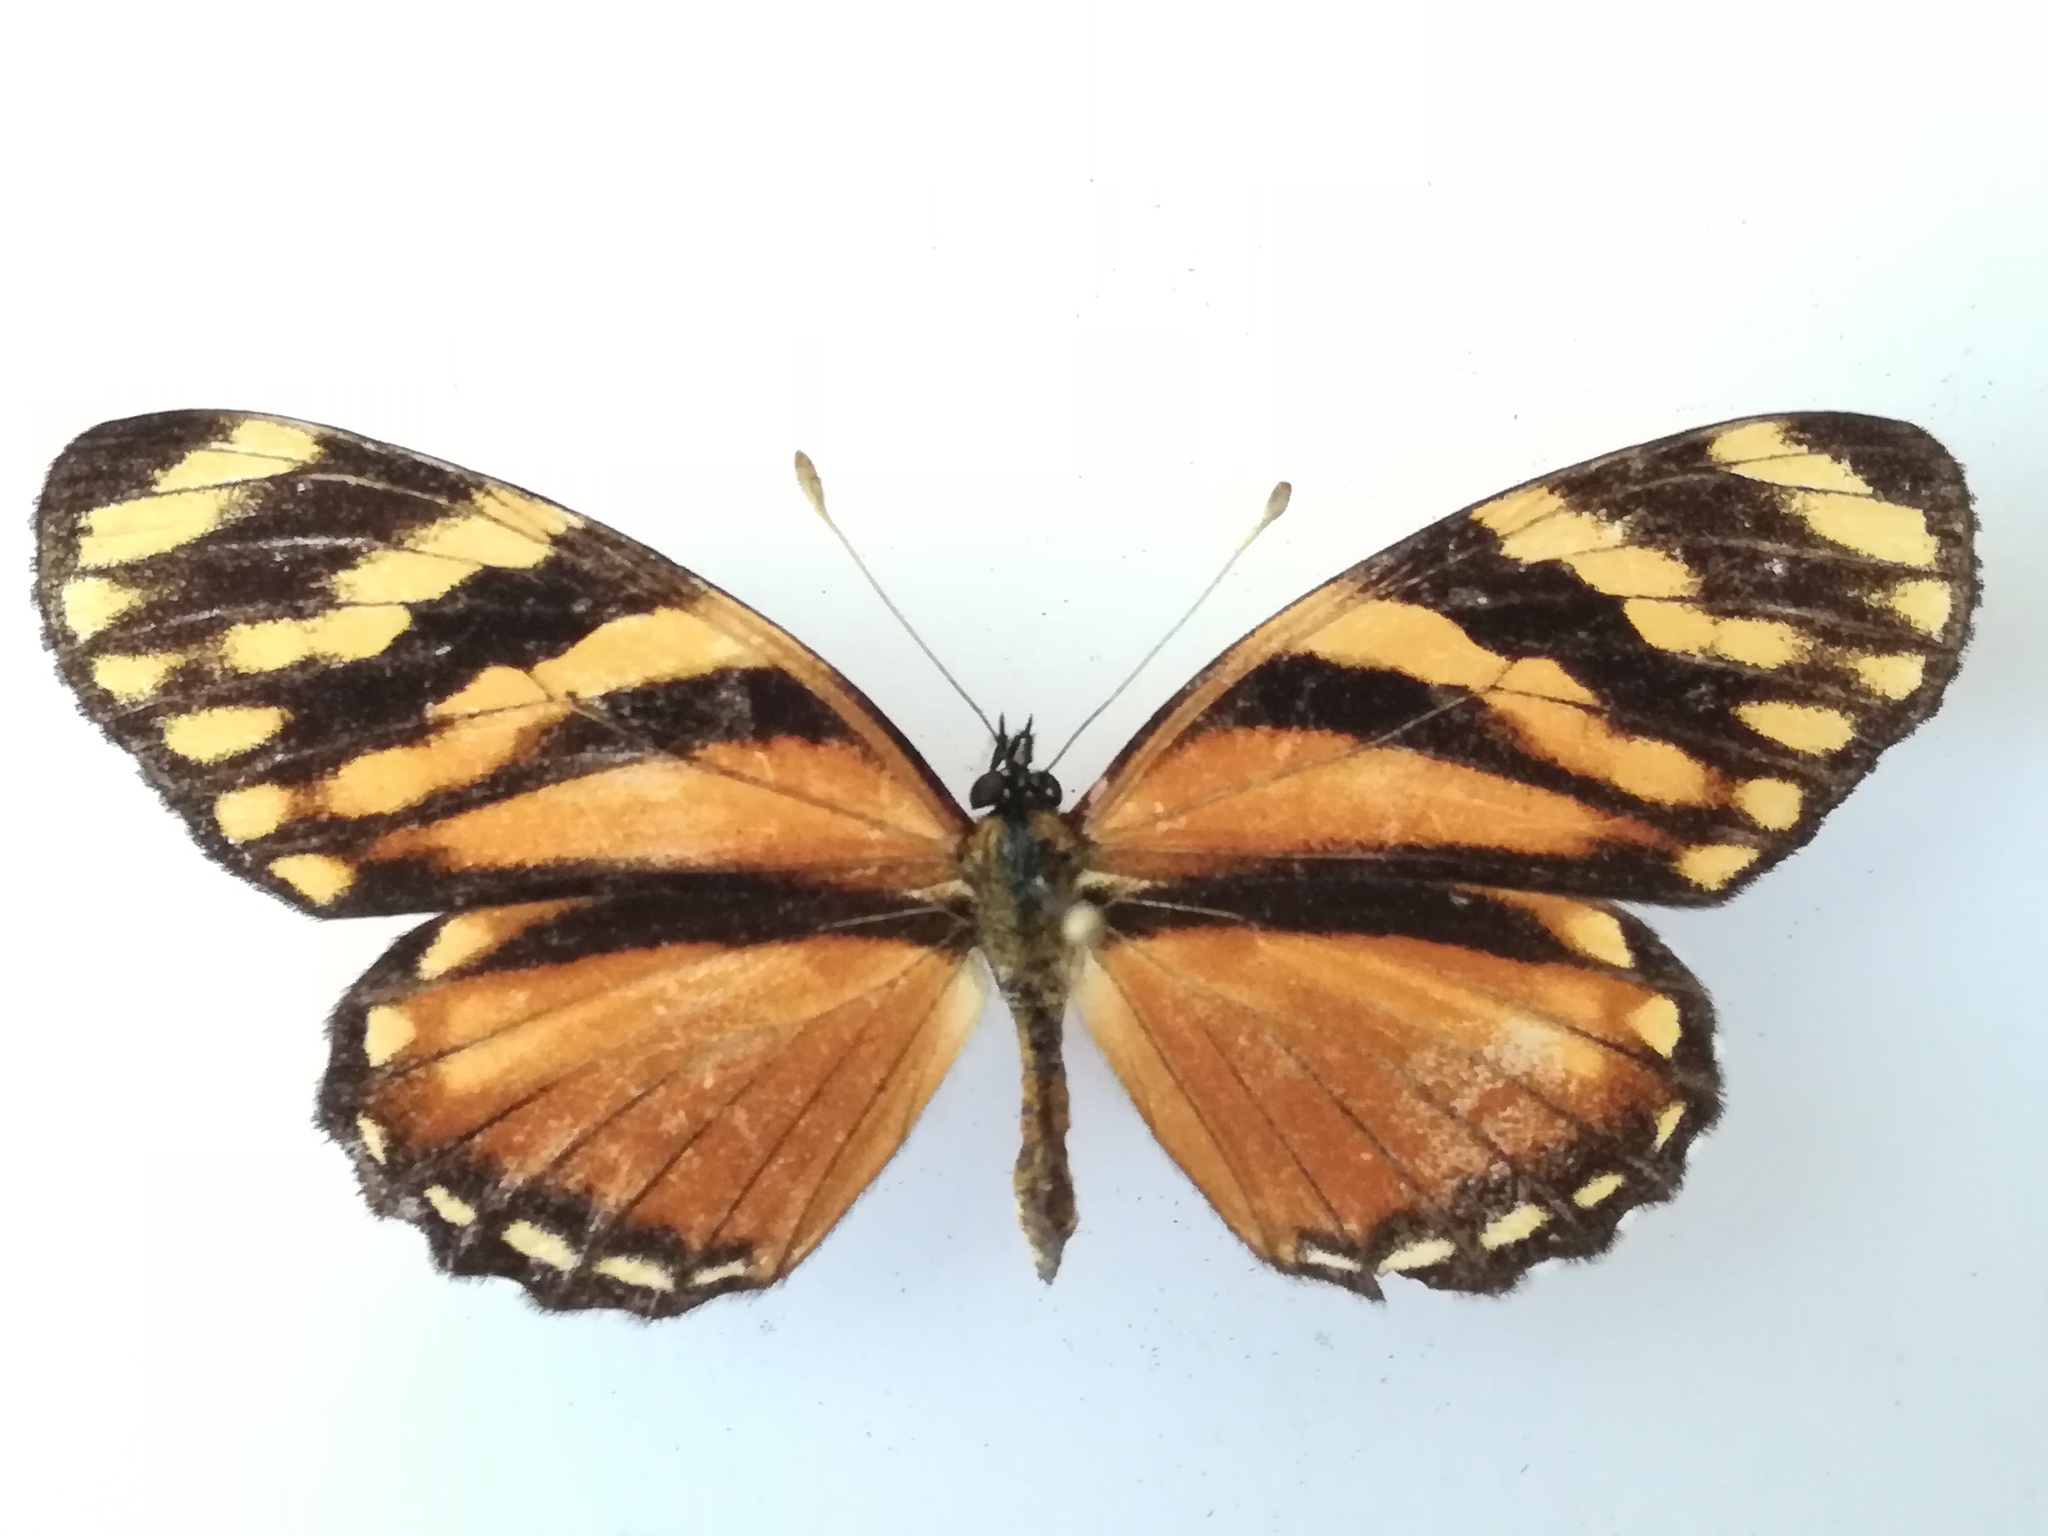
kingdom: Animalia
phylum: Arthropoda
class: Insecta
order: Lepidoptera
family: Nymphalidae
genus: Eresia
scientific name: Eresia ithomioides
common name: Variable crescent
